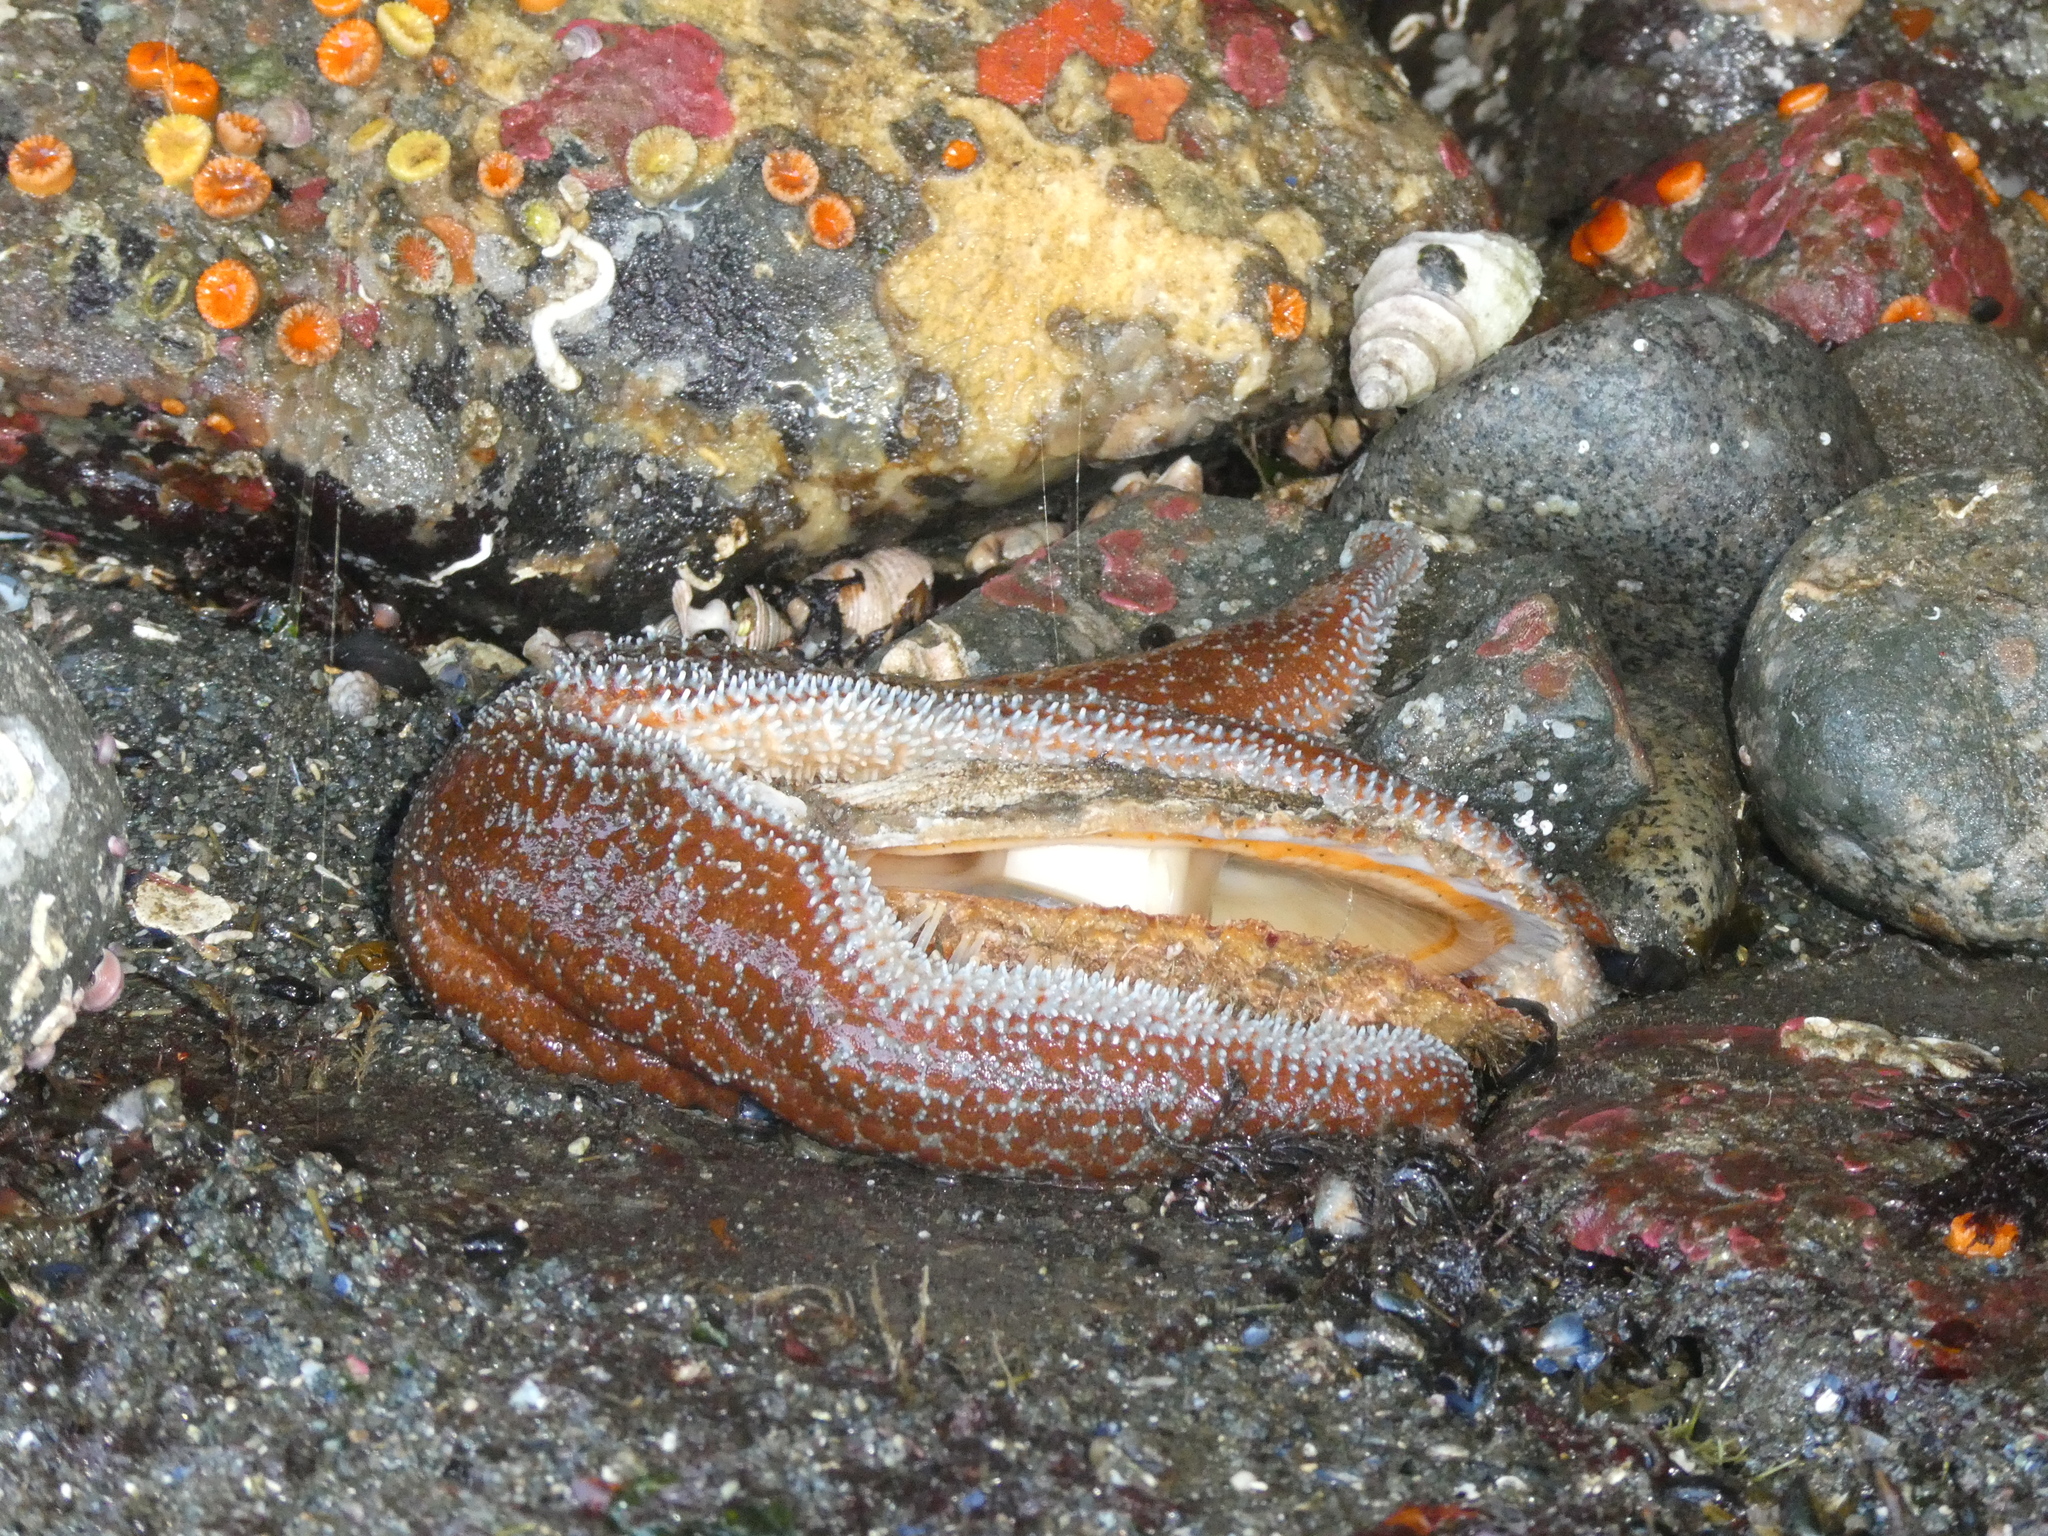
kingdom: Animalia
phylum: Mollusca
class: Bivalvia
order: Pectinida
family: Pectinidae
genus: Crassadoma
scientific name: Crassadoma gigantea
